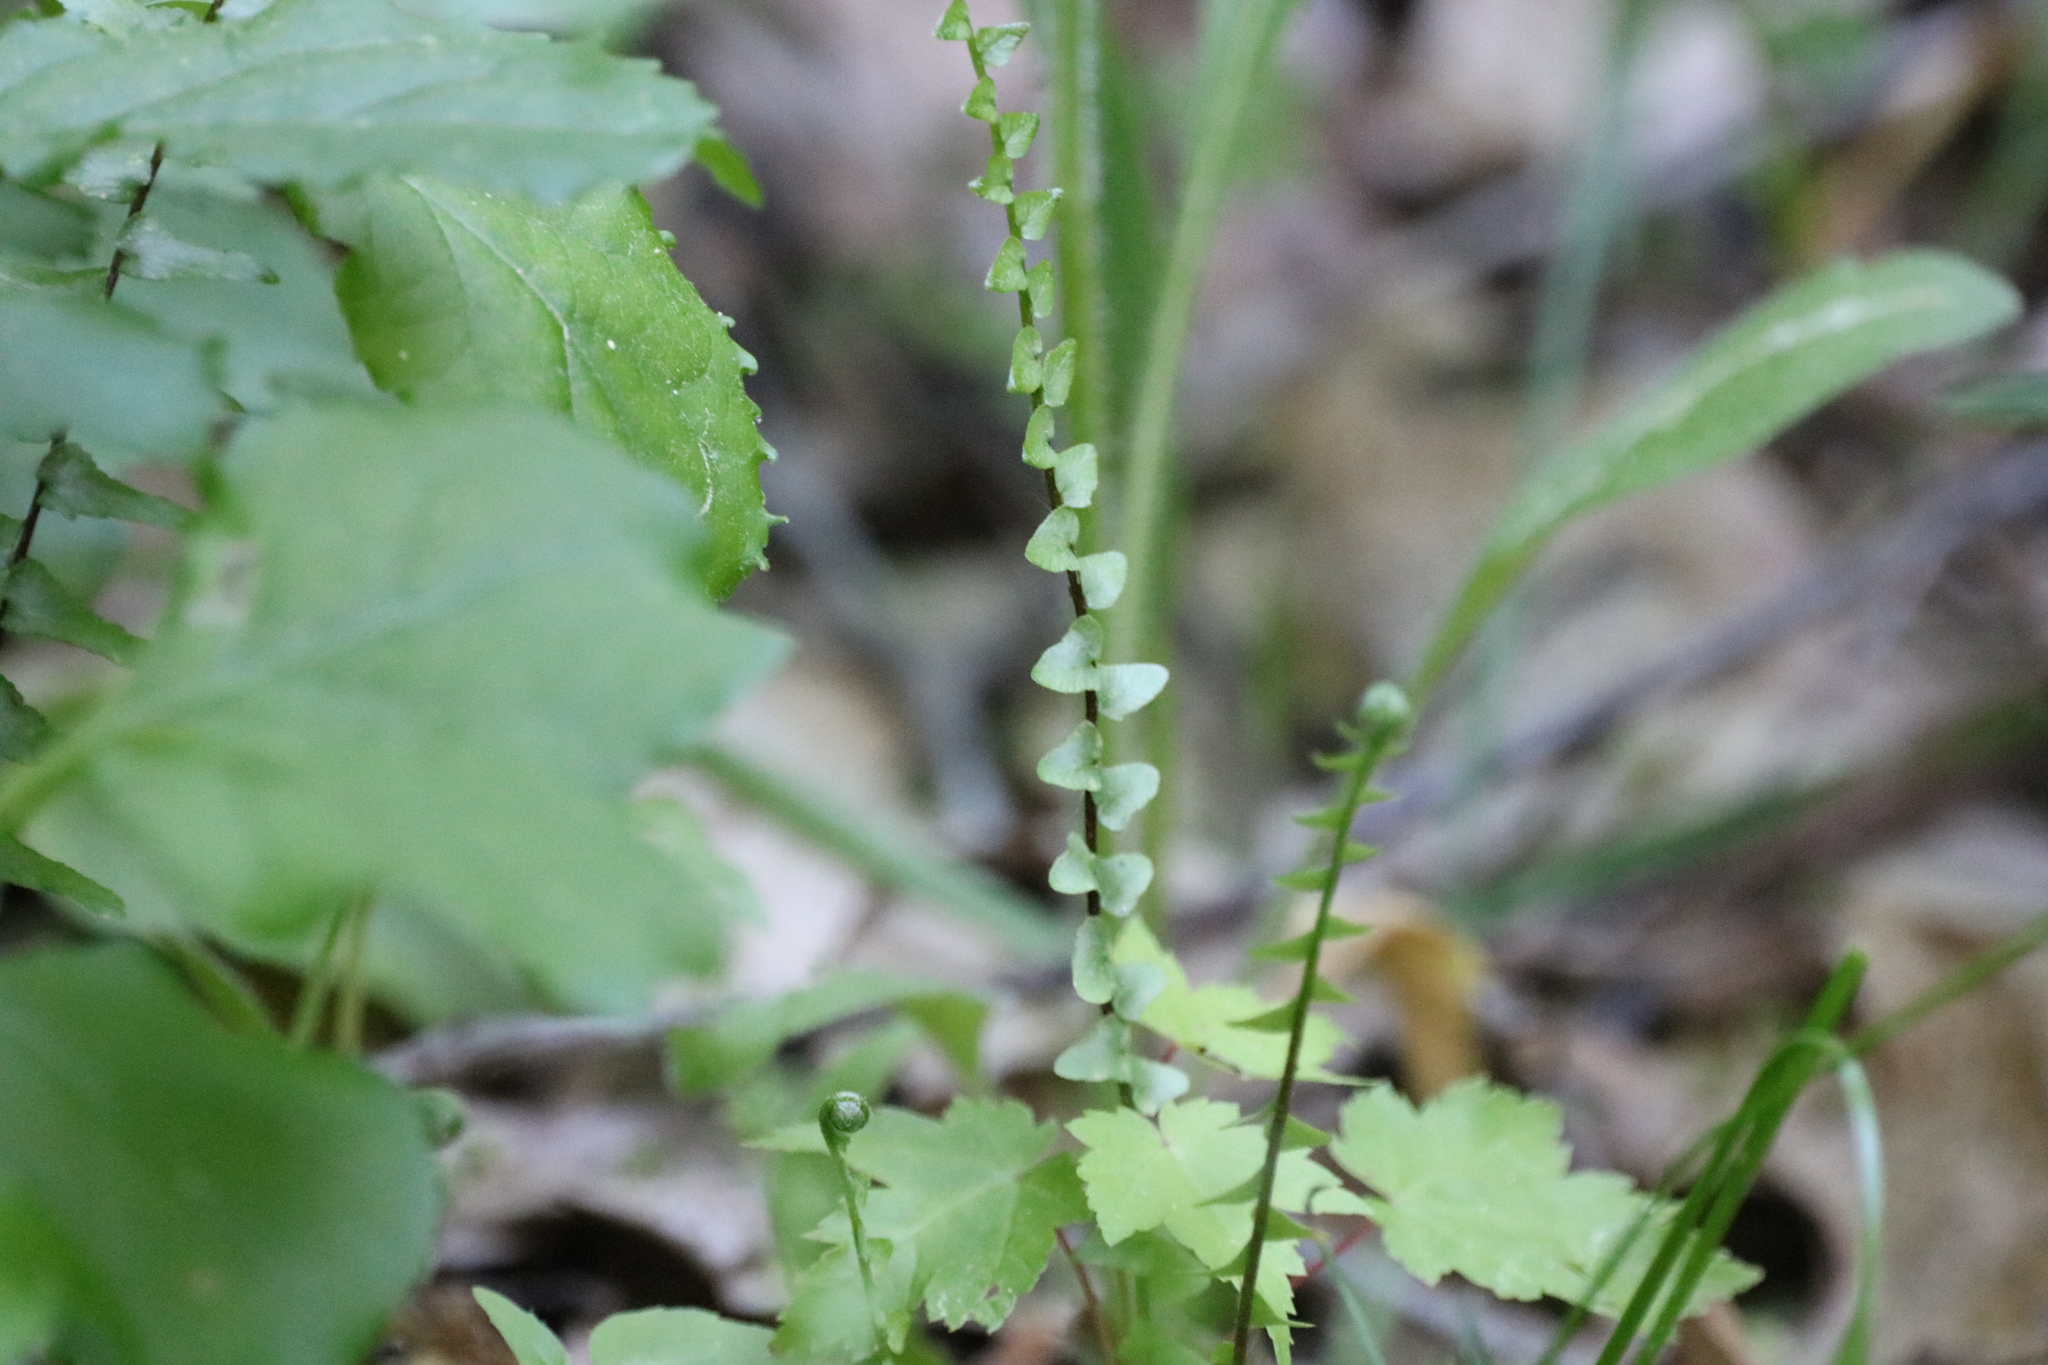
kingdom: Plantae
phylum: Tracheophyta
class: Polypodiopsida
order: Polypodiales
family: Aspleniaceae
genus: Asplenium
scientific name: Asplenium platyneuron
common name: Ebony spleenwort
